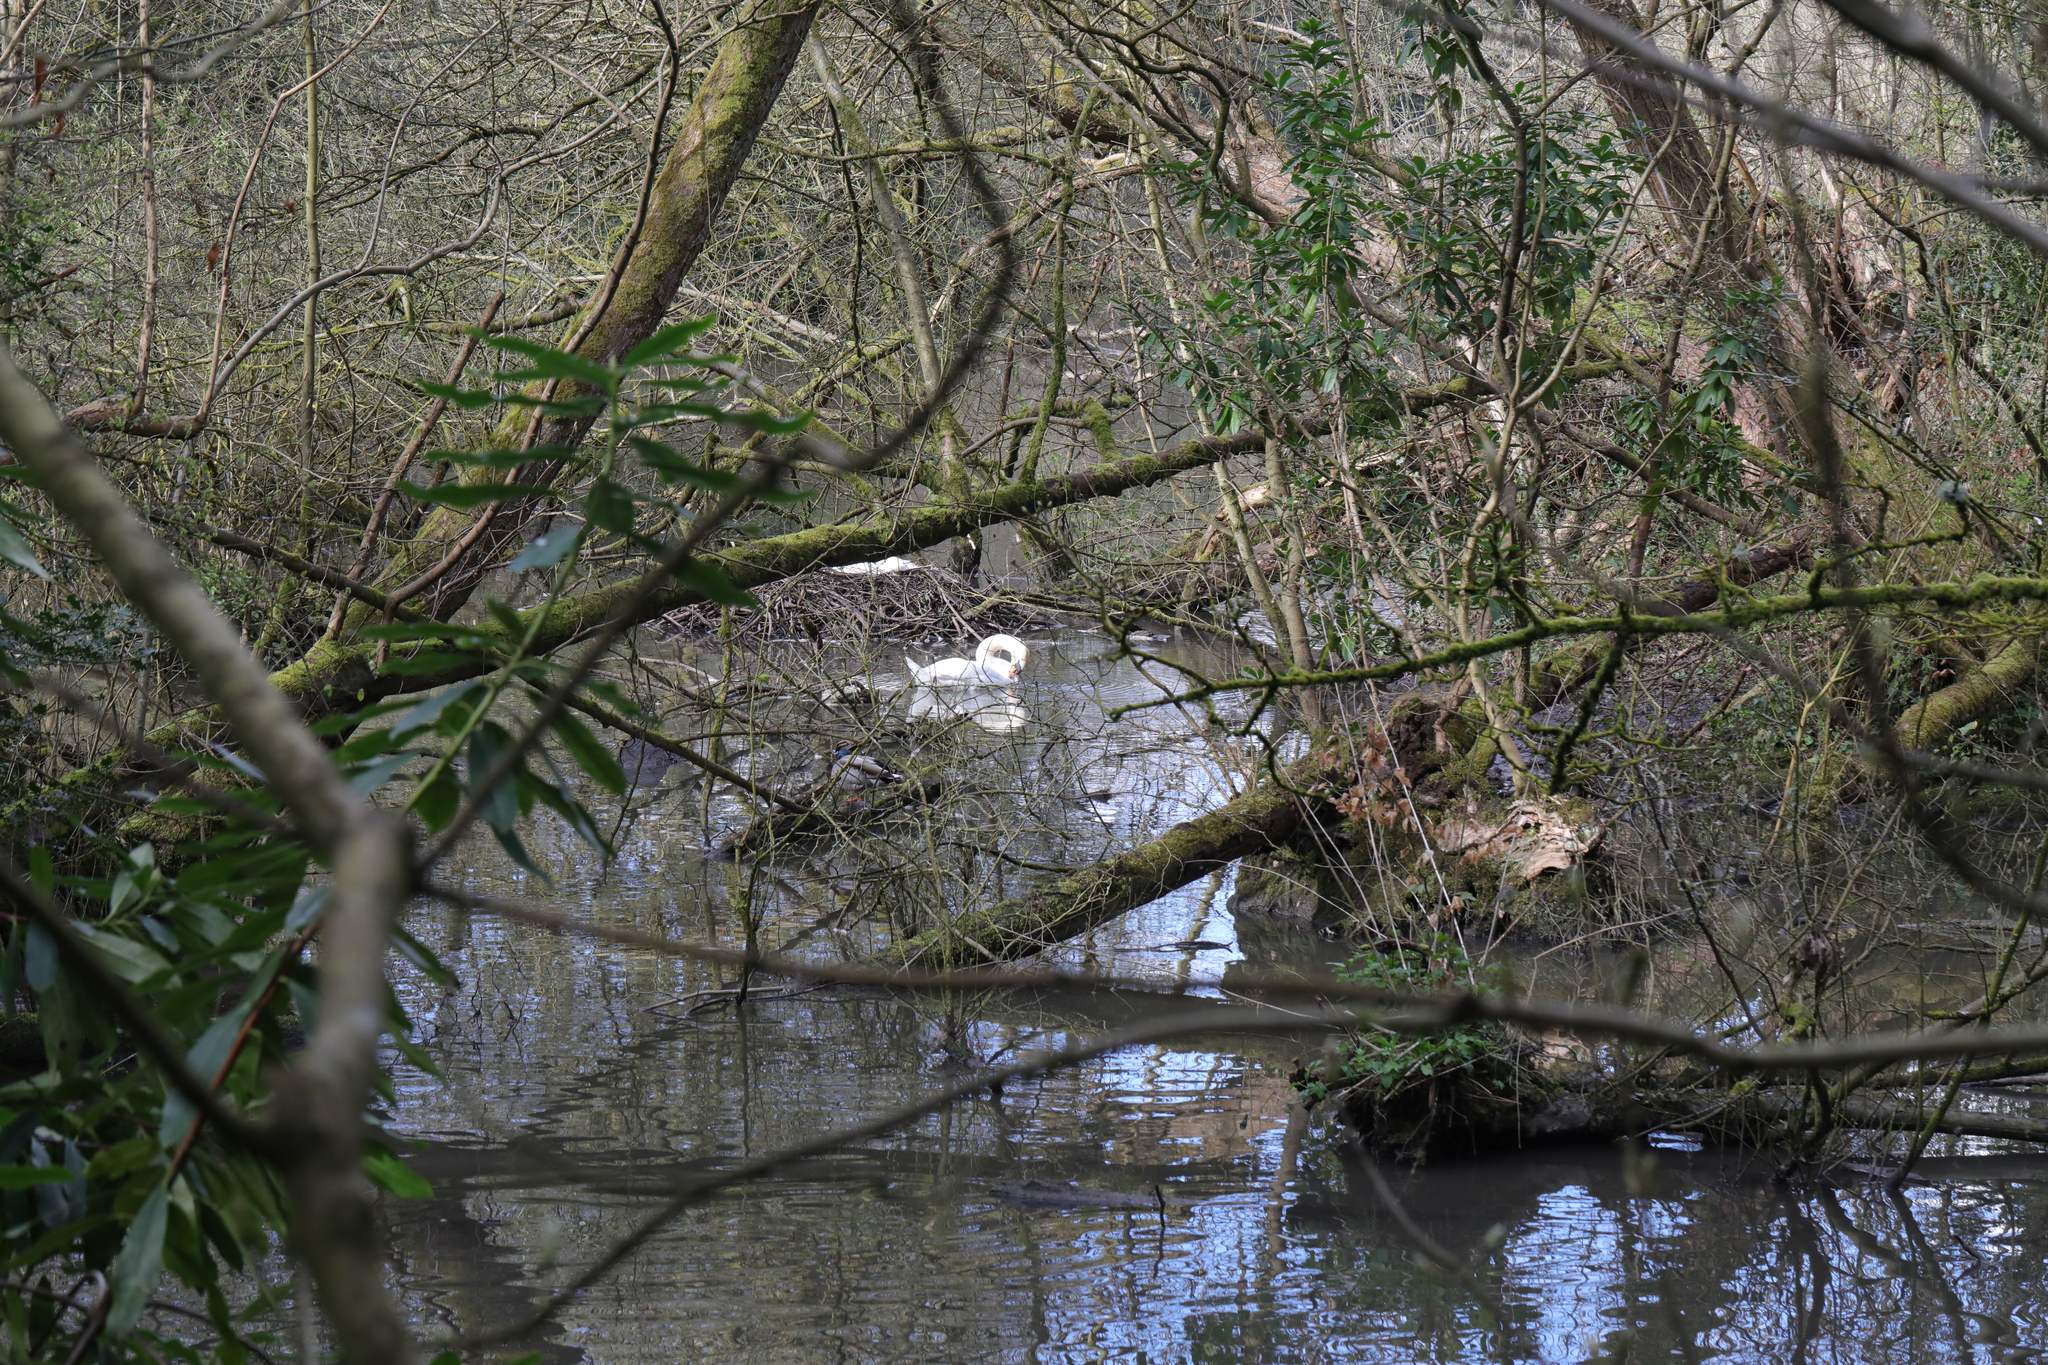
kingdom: Animalia
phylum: Chordata
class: Aves
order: Anseriformes
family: Anatidae
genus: Cygnus
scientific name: Cygnus olor
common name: Mute swan
